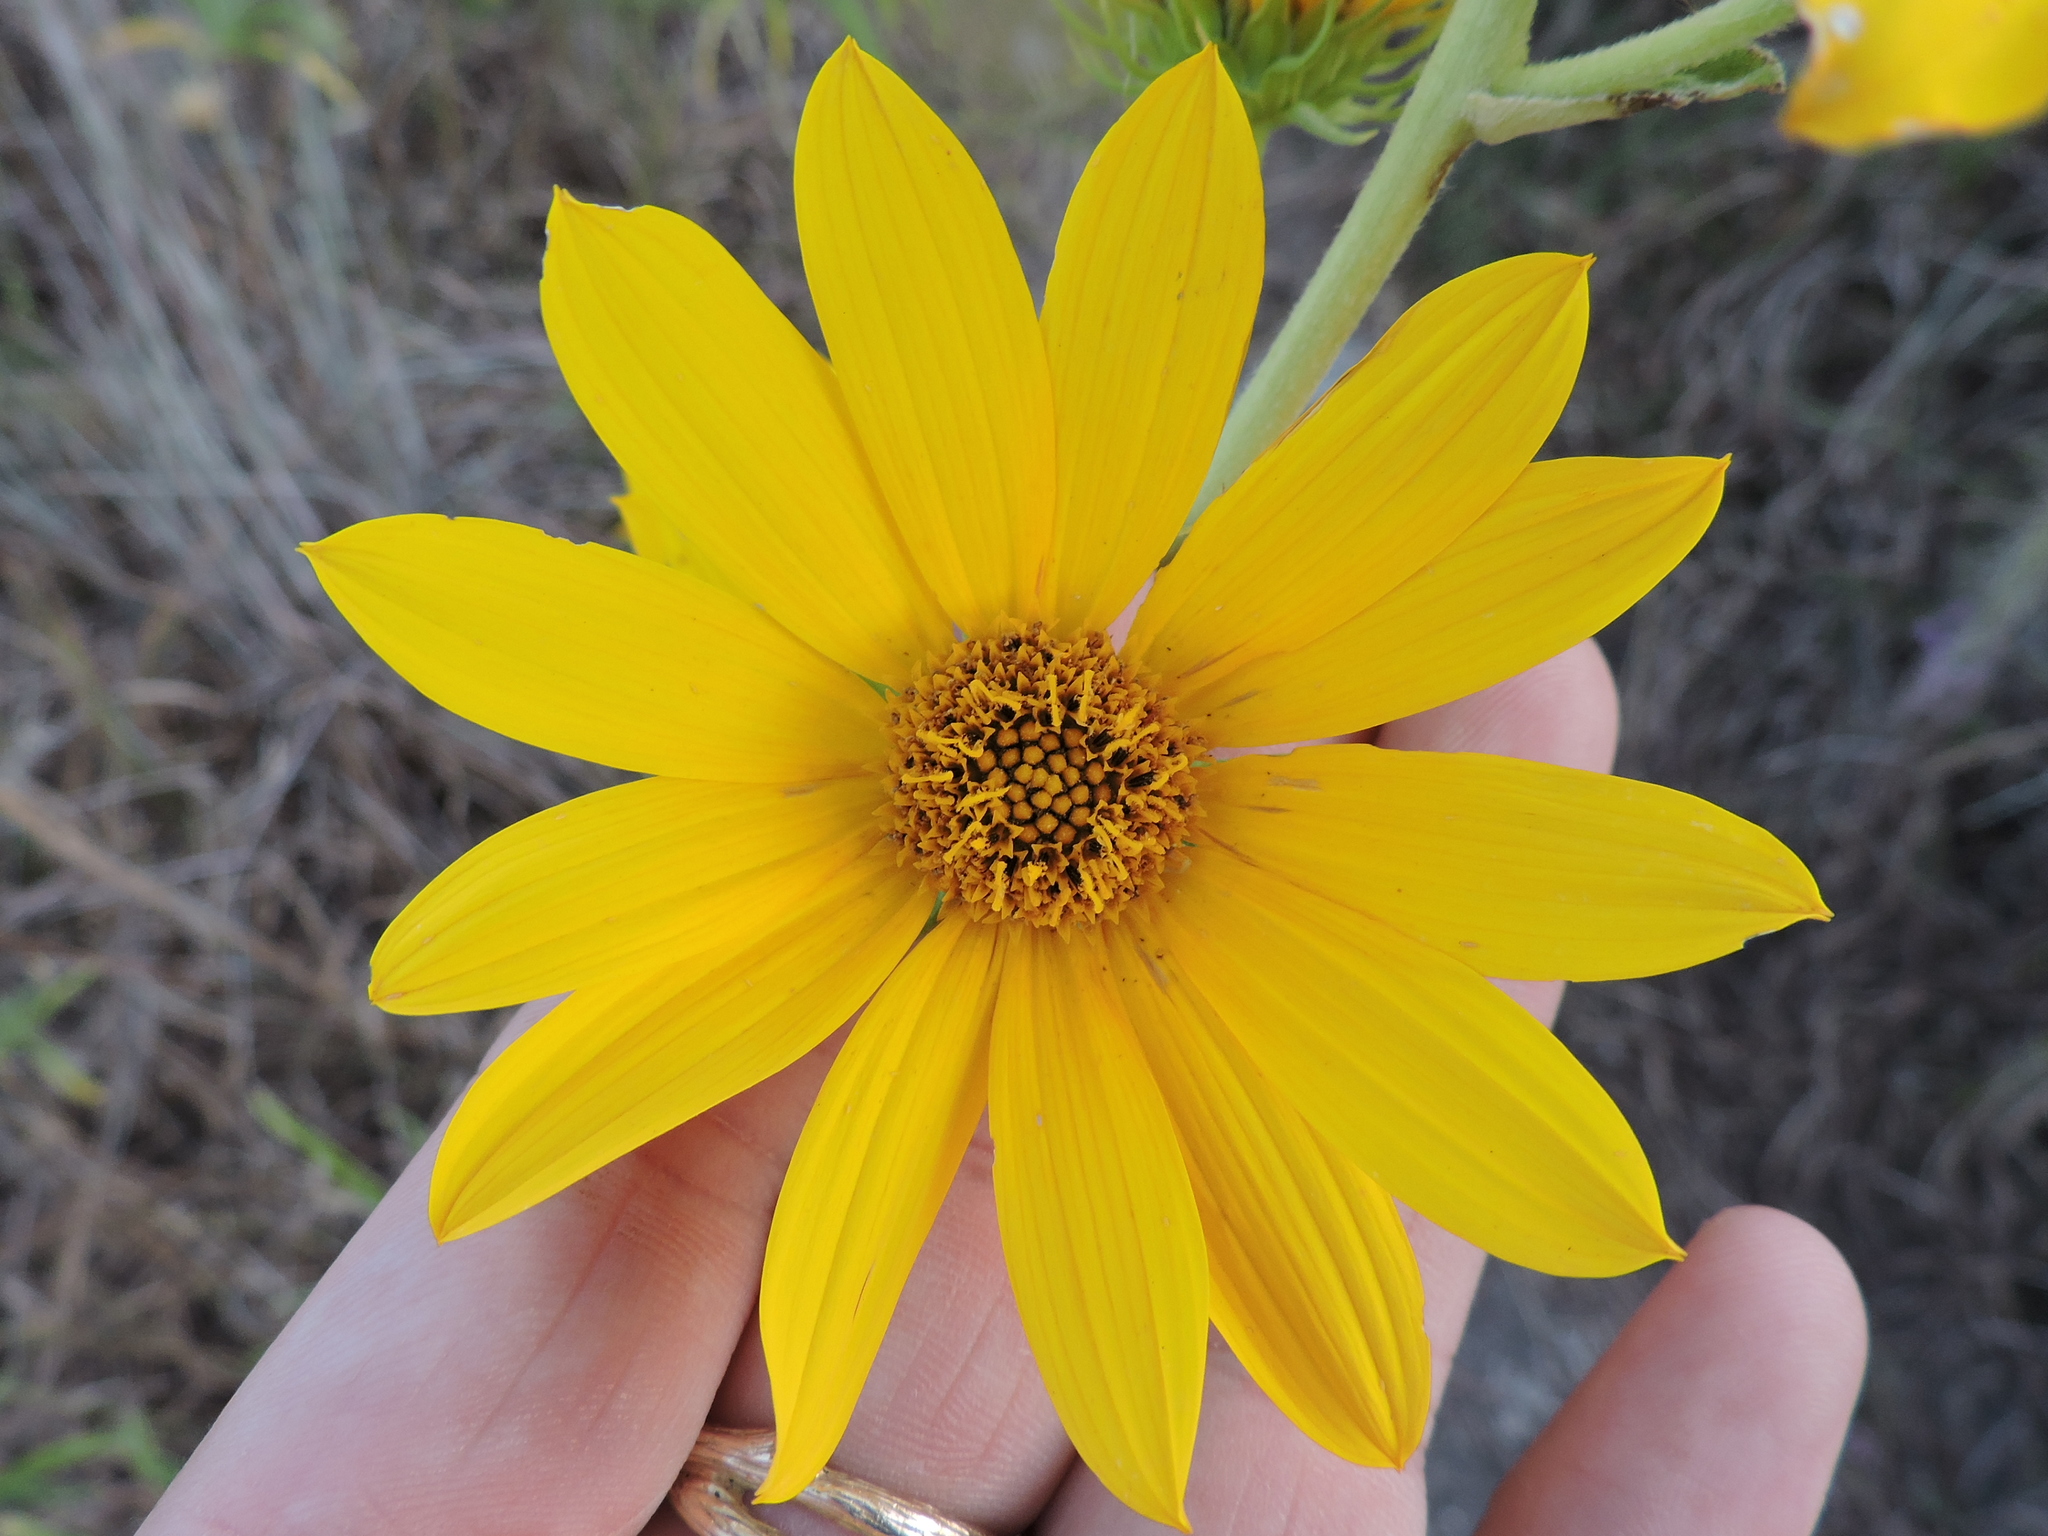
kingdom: Plantae
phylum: Tracheophyta
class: Magnoliopsida
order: Asterales
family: Asteraceae
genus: Helianthus
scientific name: Helianthus maximiliani
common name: Maximilian's sunflower
